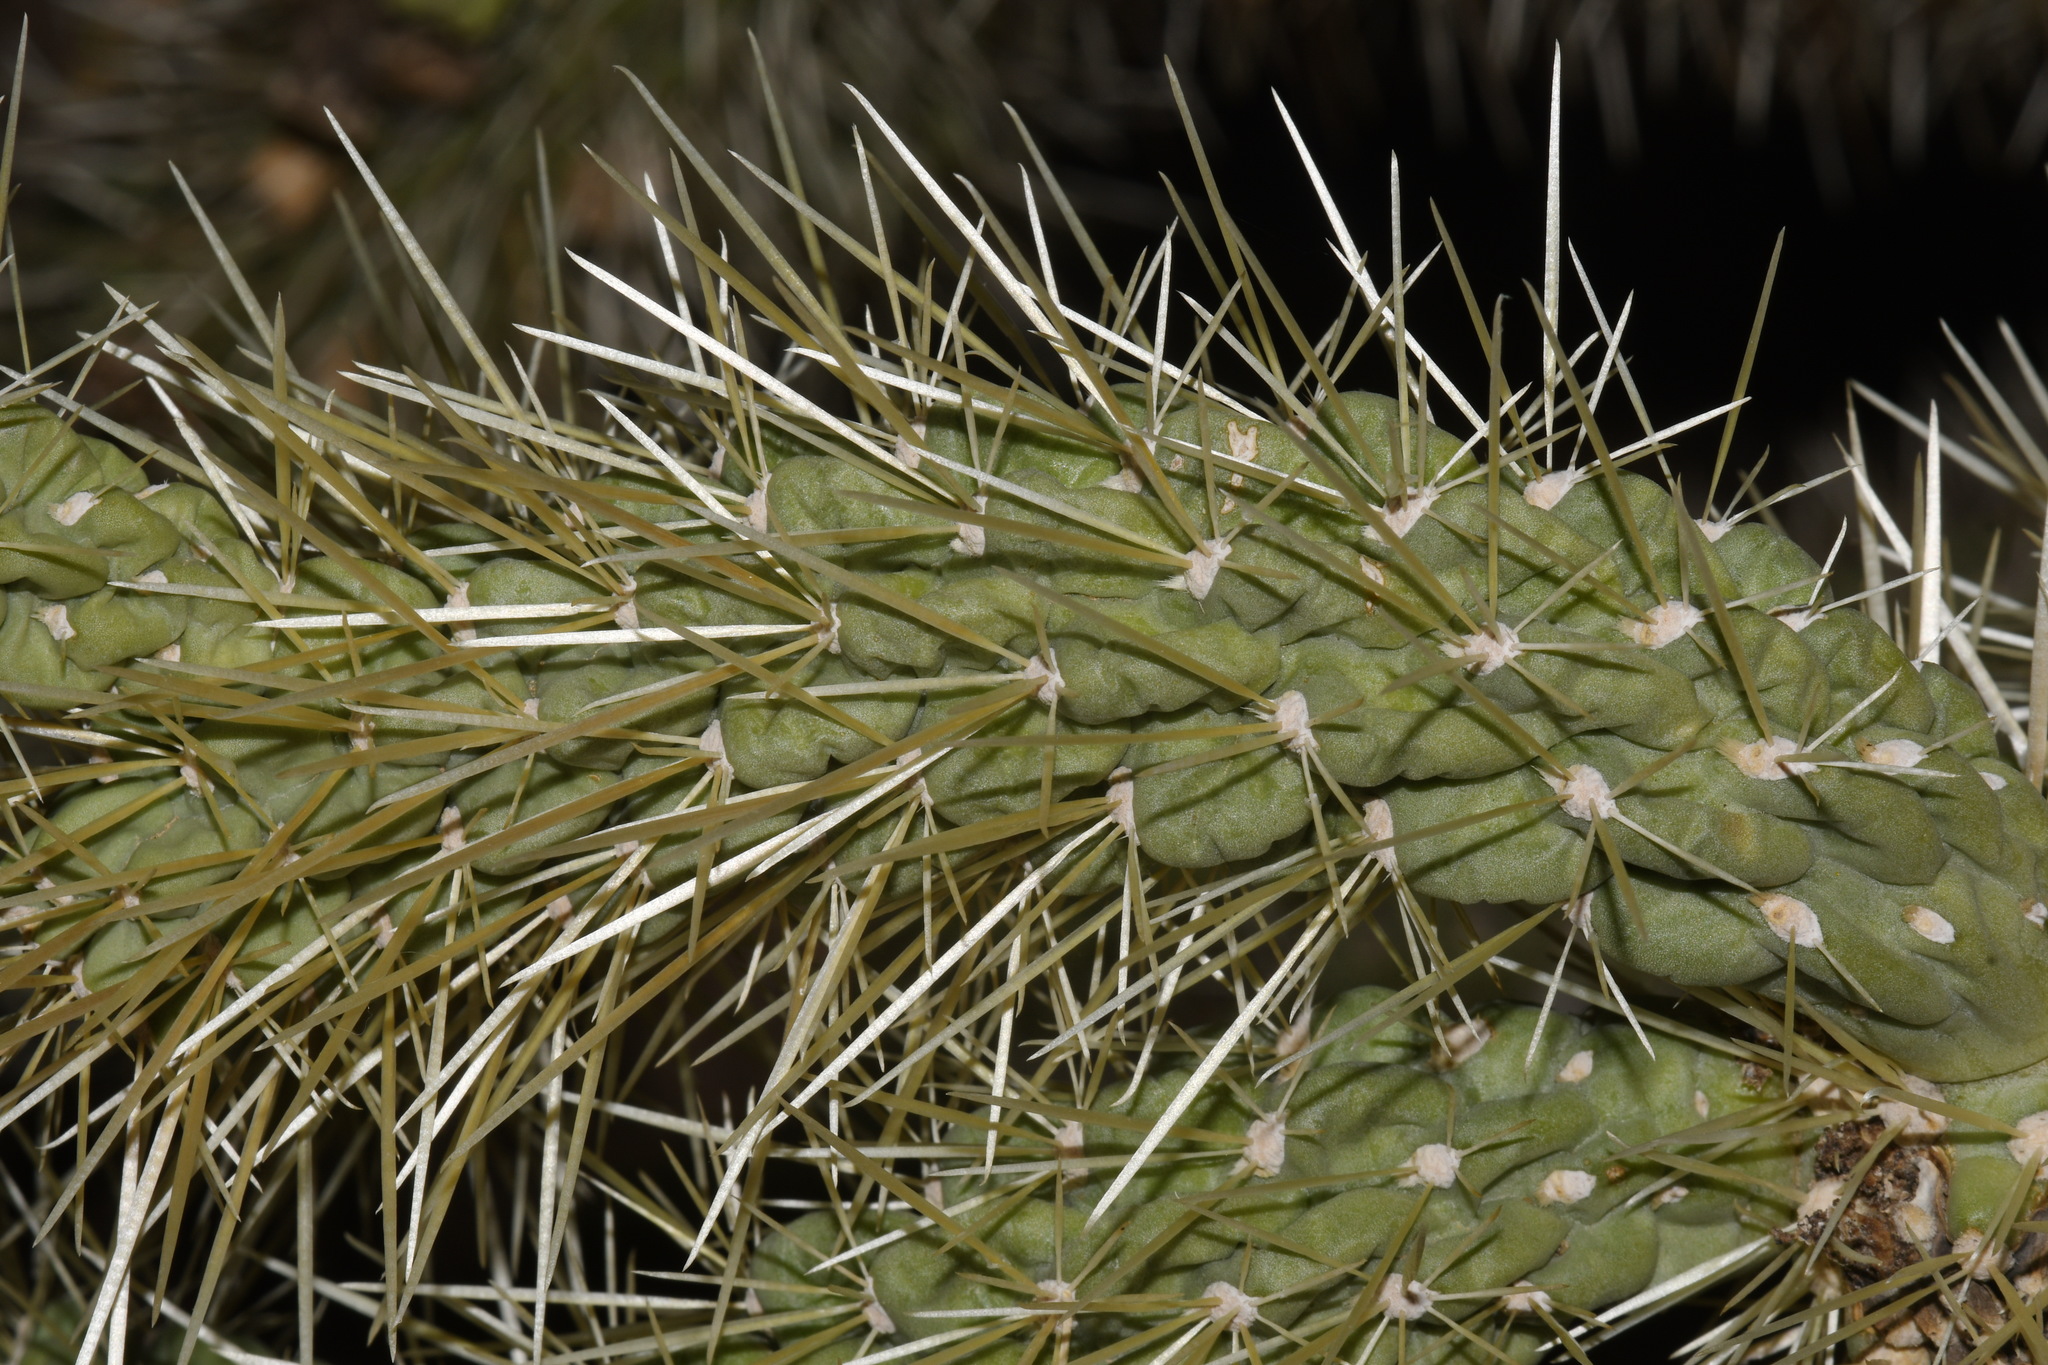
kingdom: Plantae
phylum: Tracheophyta
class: Magnoliopsida
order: Caryophyllales
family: Cactaceae
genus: Cylindropuntia
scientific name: Cylindropuntia fulgida
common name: Jumping cholla
